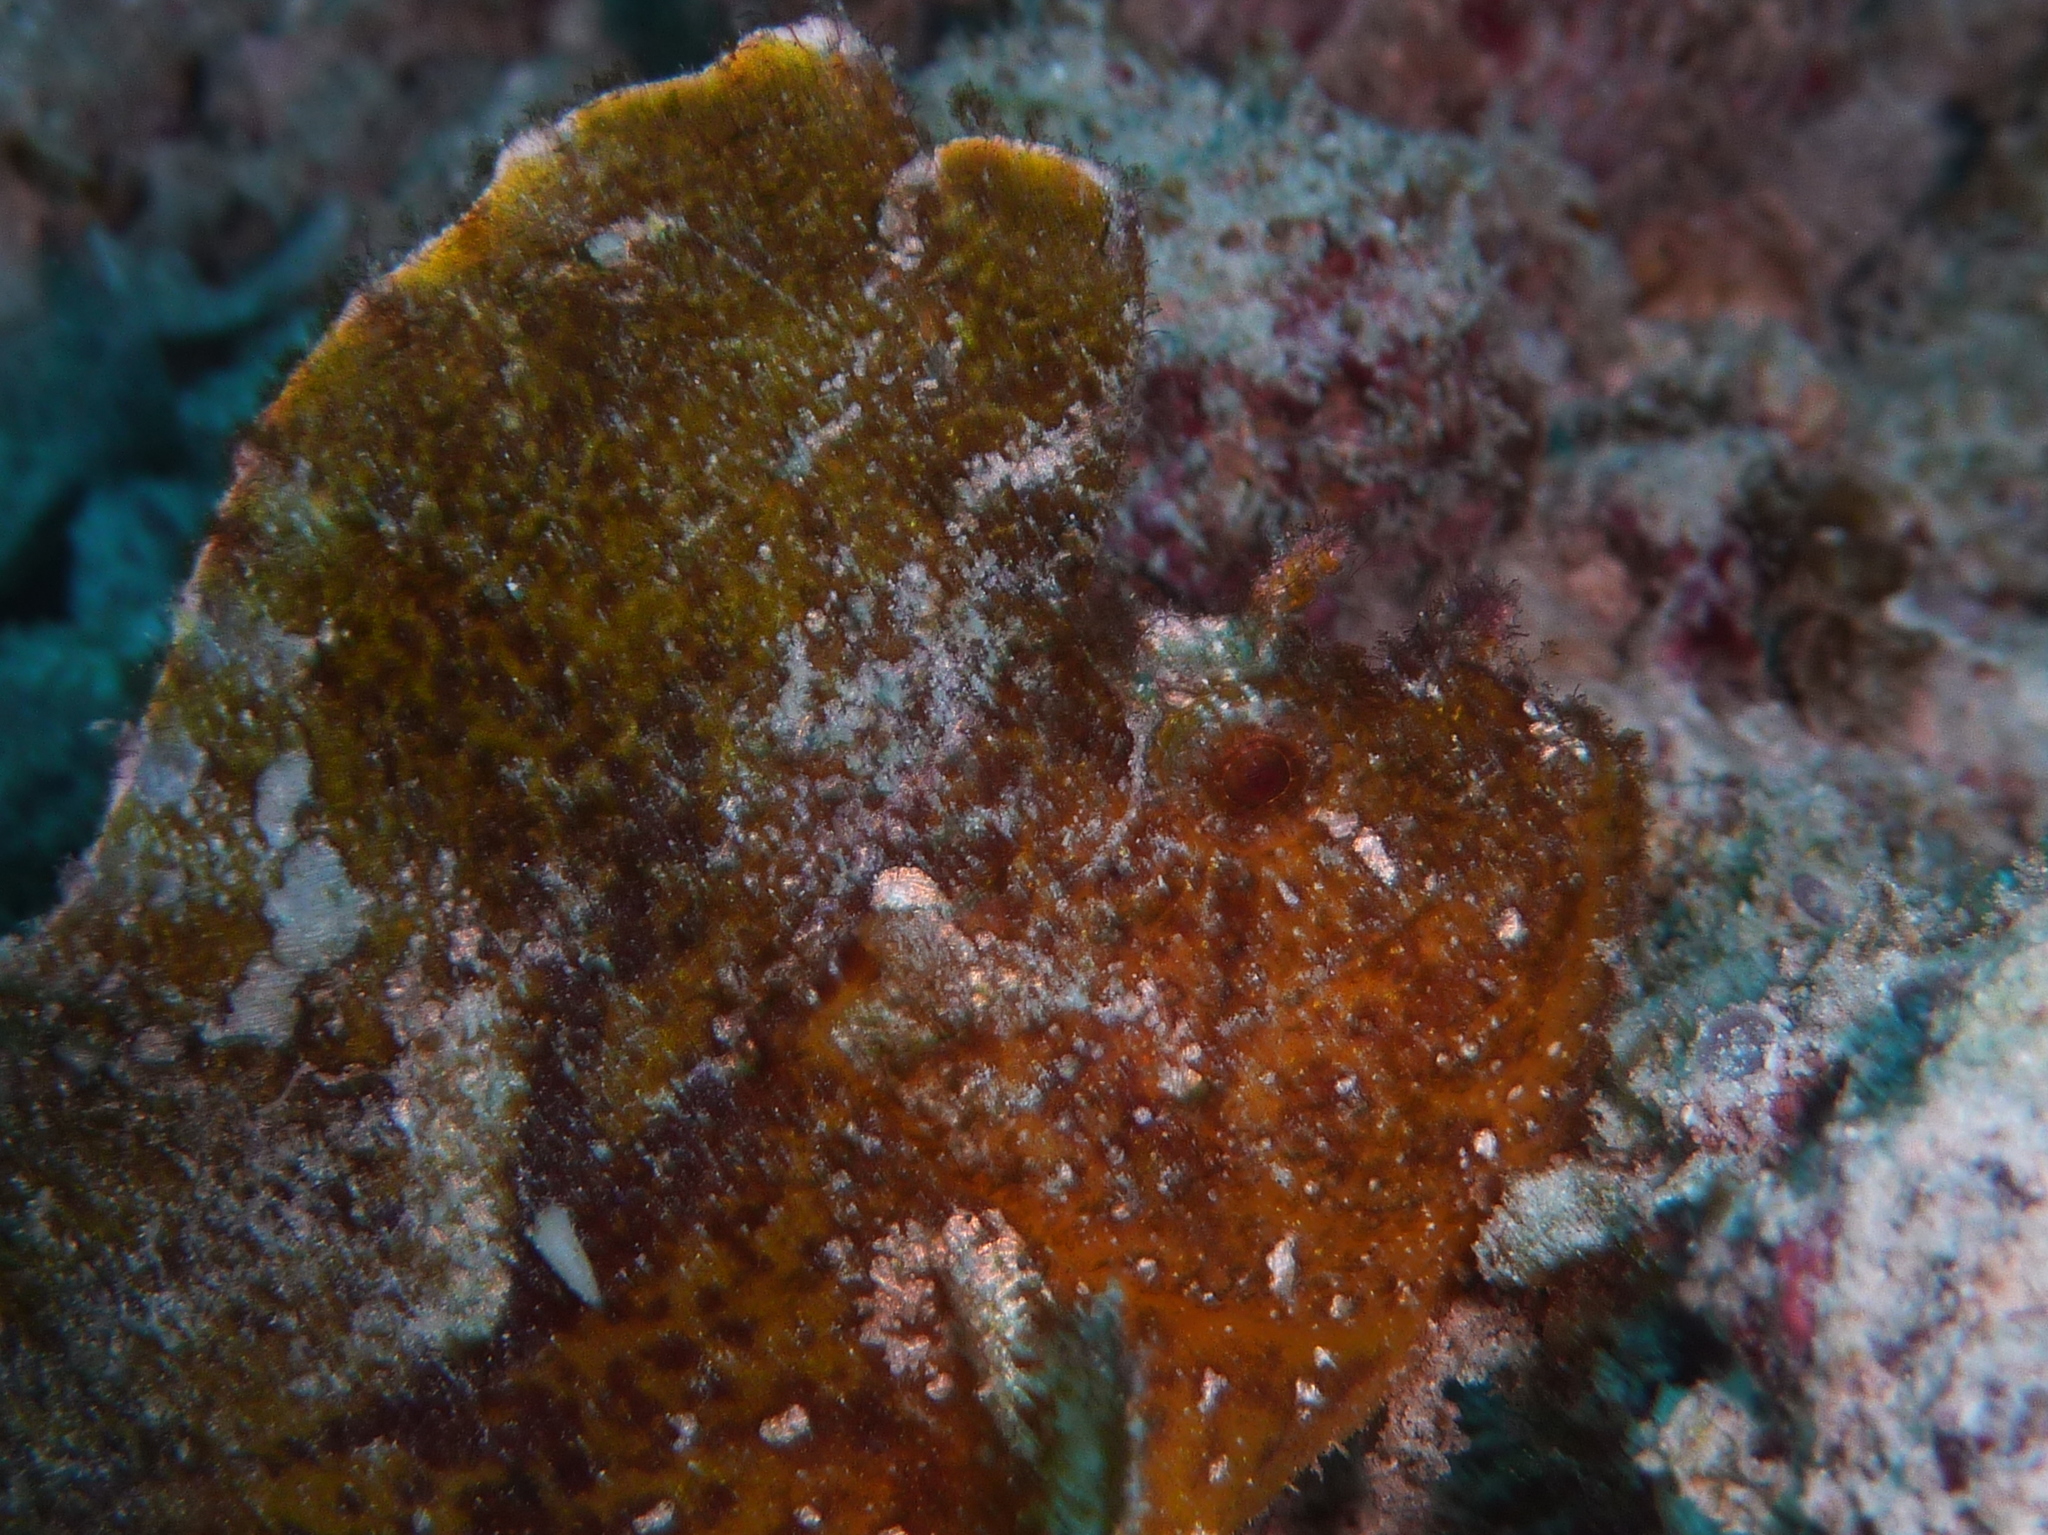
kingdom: Animalia
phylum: Chordata
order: Scorpaeniformes
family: Scorpaenidae
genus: Taenianotus
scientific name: Taenianotus triacanthus
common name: Leaf scorpionfish
